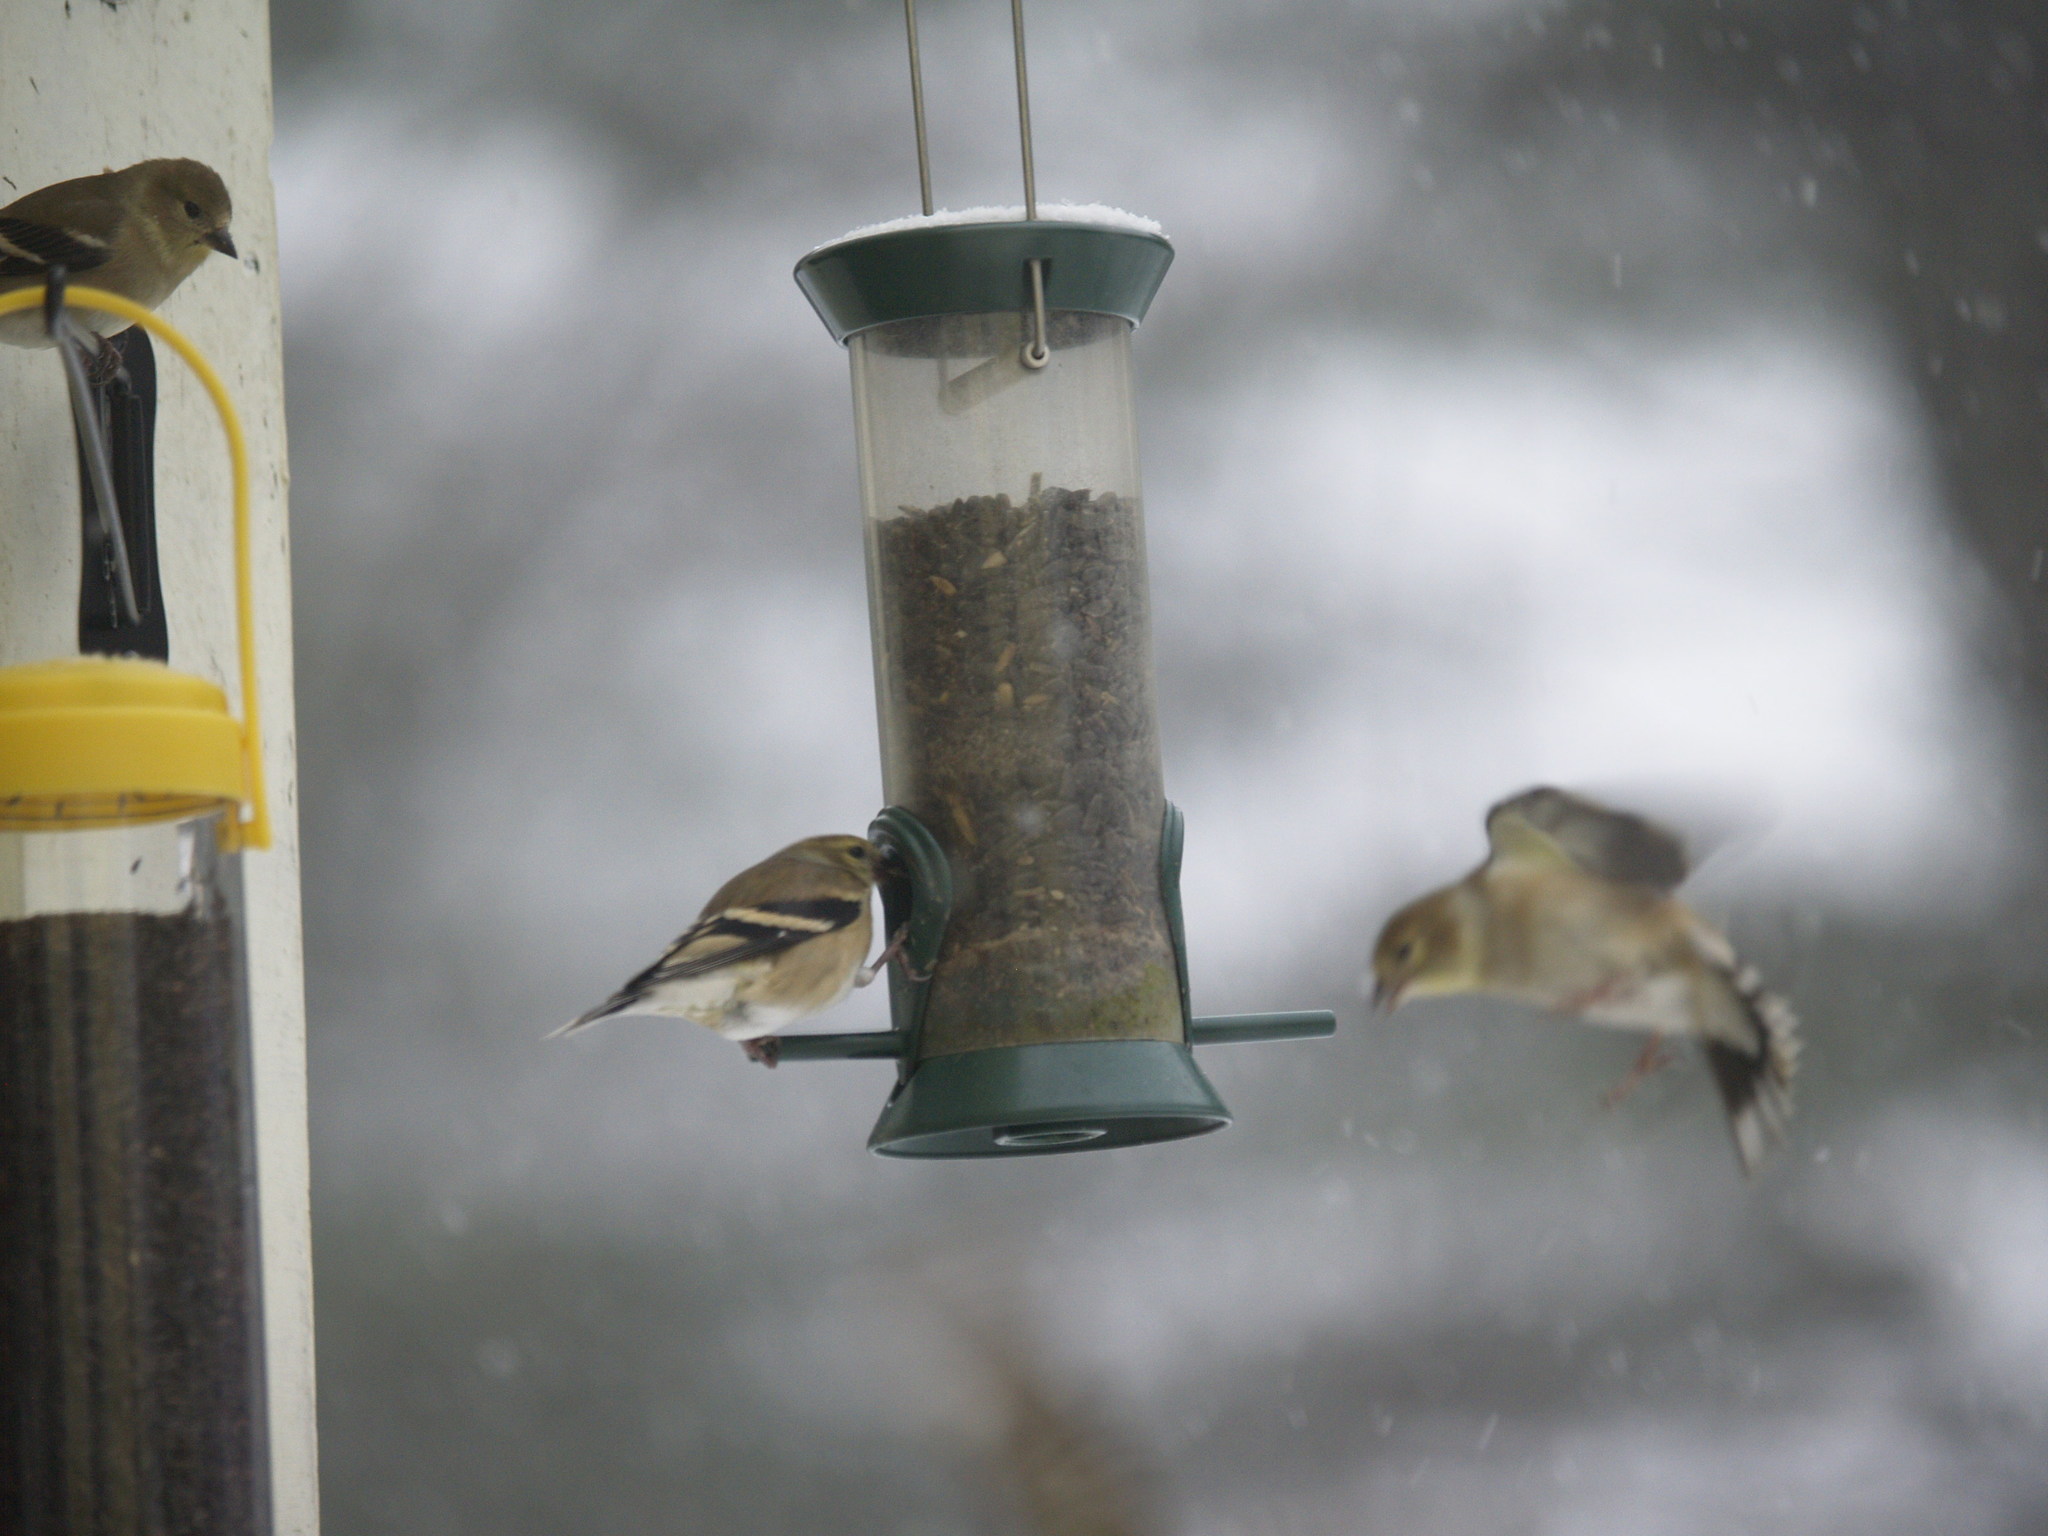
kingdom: Animalia
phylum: Chordata
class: Aves
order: Passeriformes
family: Fringillidae
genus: Spinus
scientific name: Spinus tristis
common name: American goldfinch
